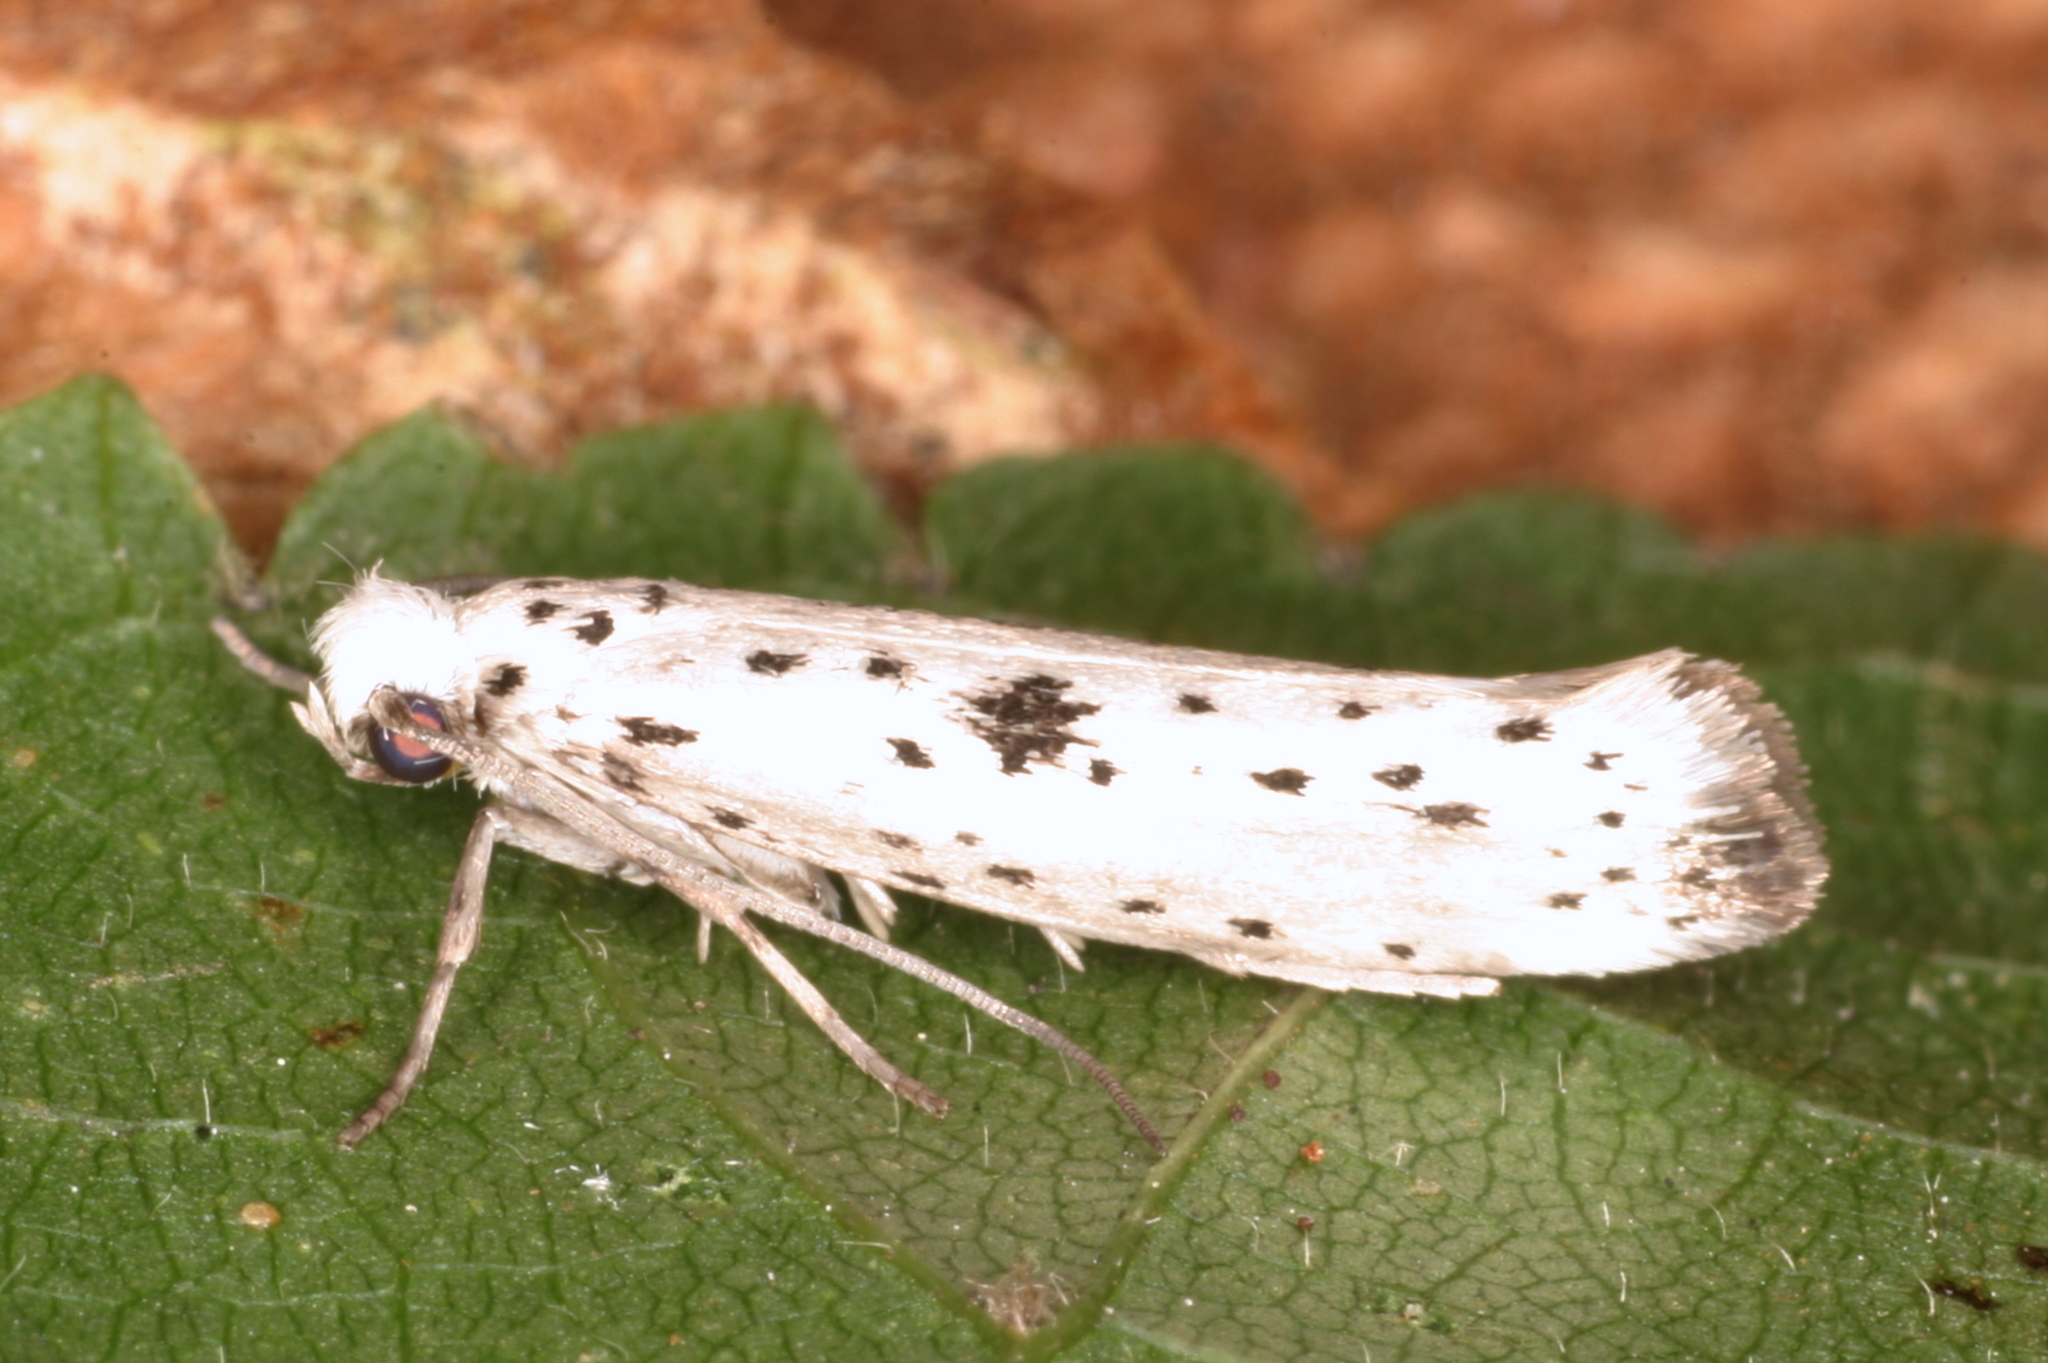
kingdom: Animalia
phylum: Arthropoda
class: Insecta
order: Lepidoptera
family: Yponomeutidae
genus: Yponomeuta
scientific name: Yponomeuta plumbella
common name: Black-tipped ermine
